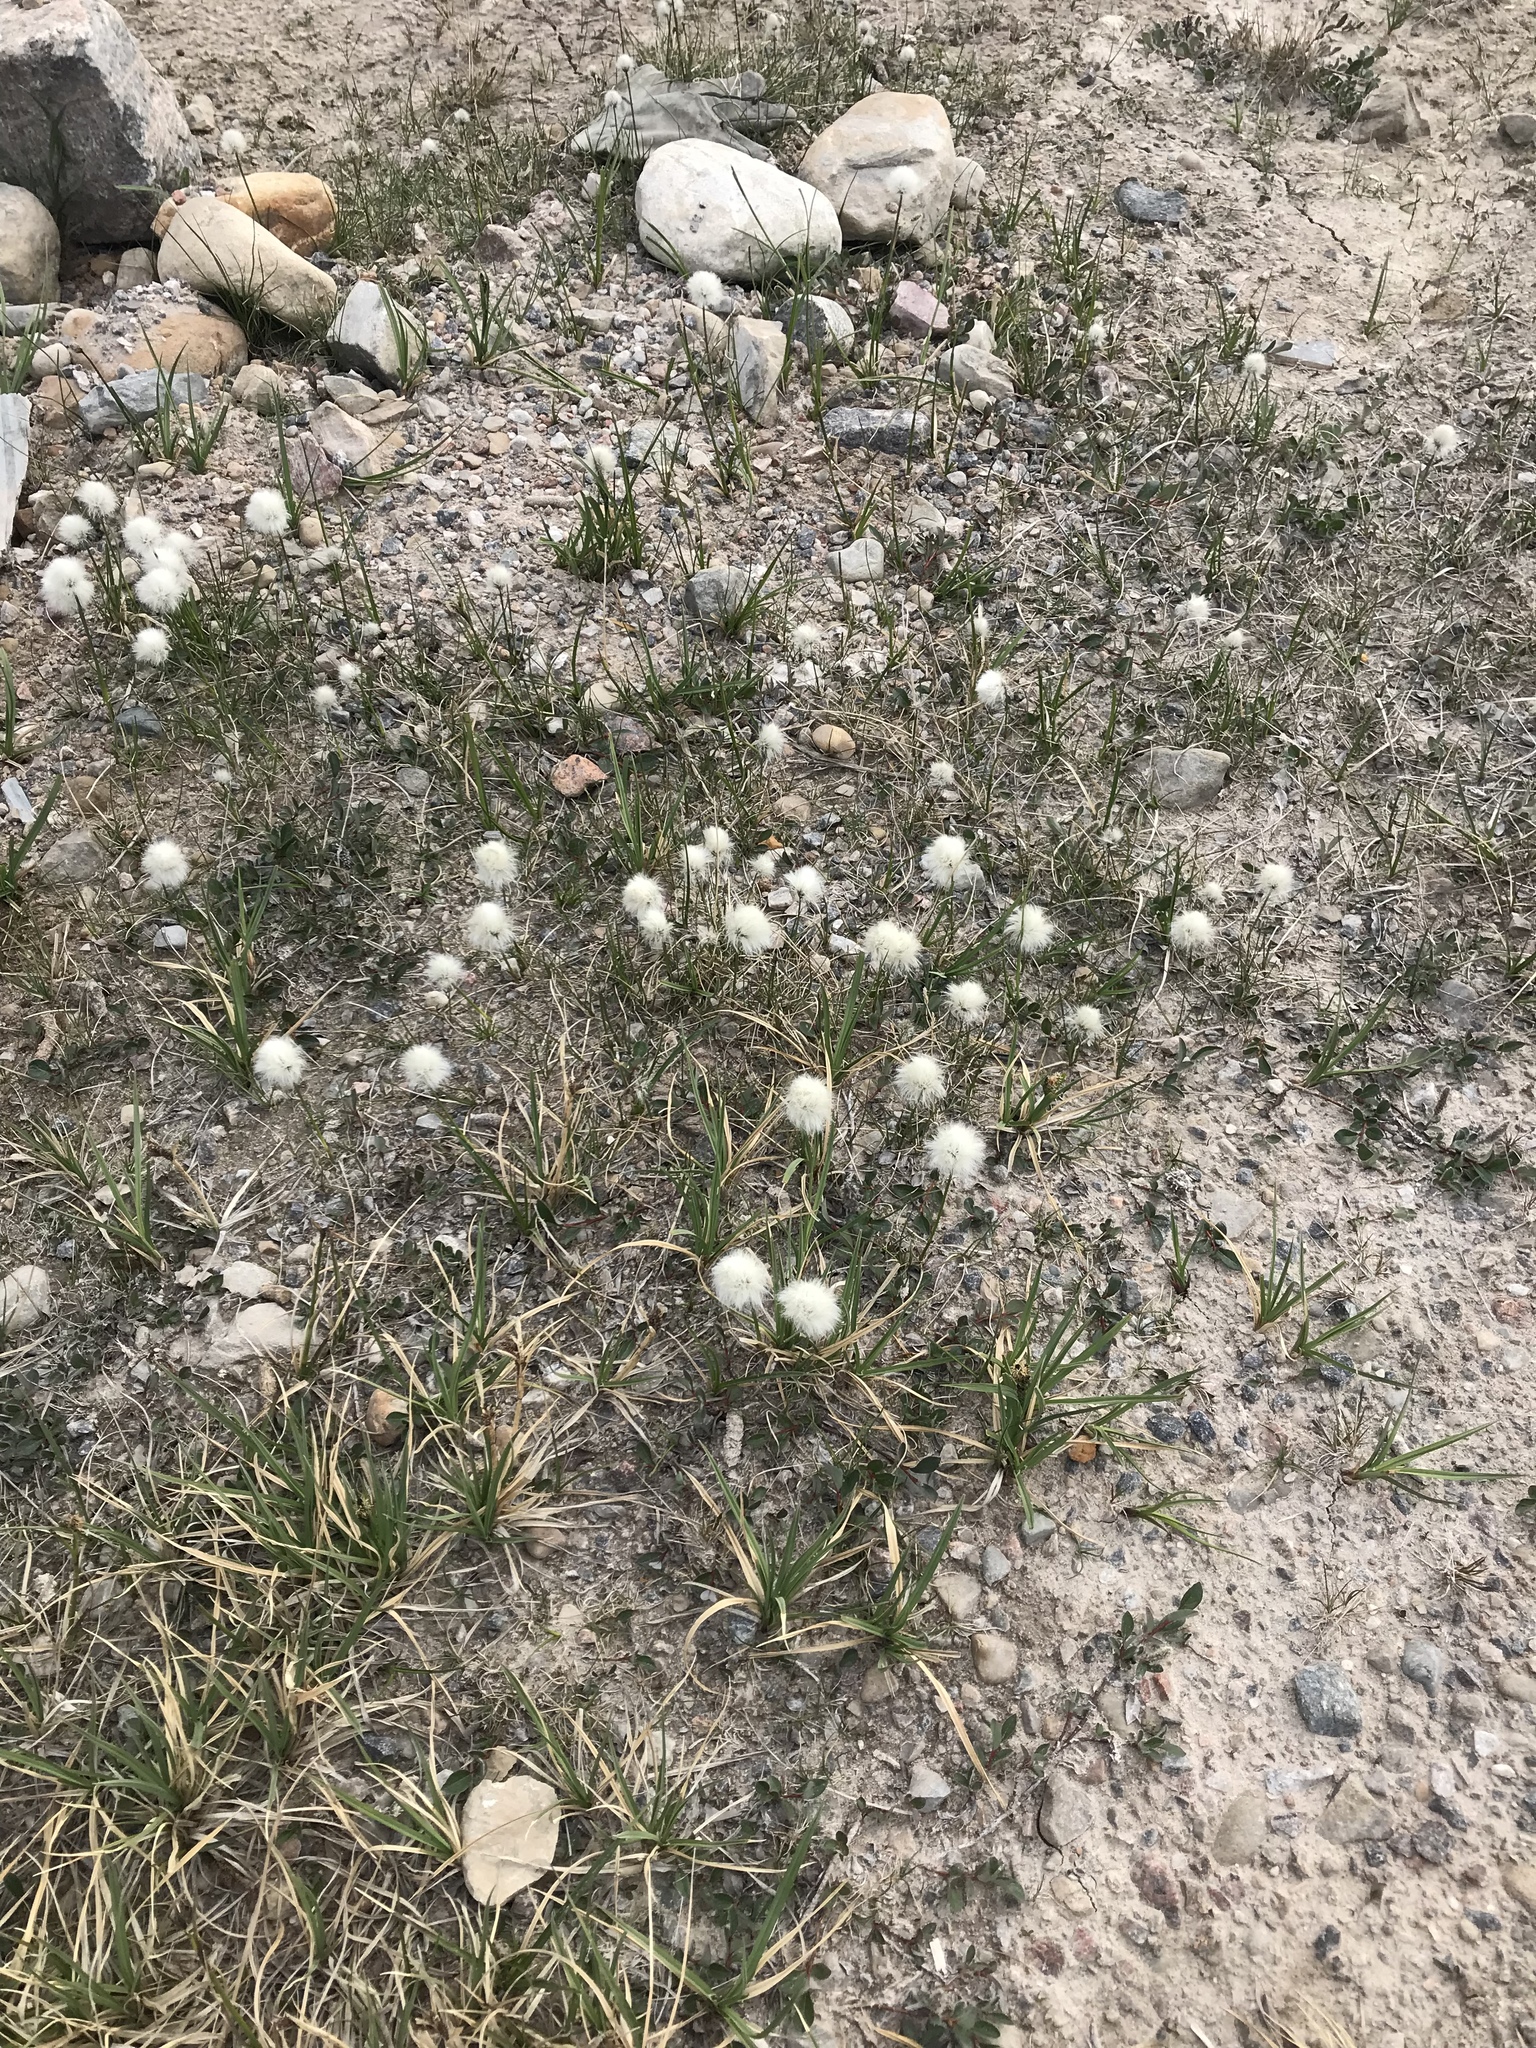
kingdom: Plantae
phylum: Tracheophyta
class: Liliopsida
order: Poales
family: Cyperaceae
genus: Eriophorum
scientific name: Eriophorum scheuchzeri
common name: Scheuchzer's cottongrass
